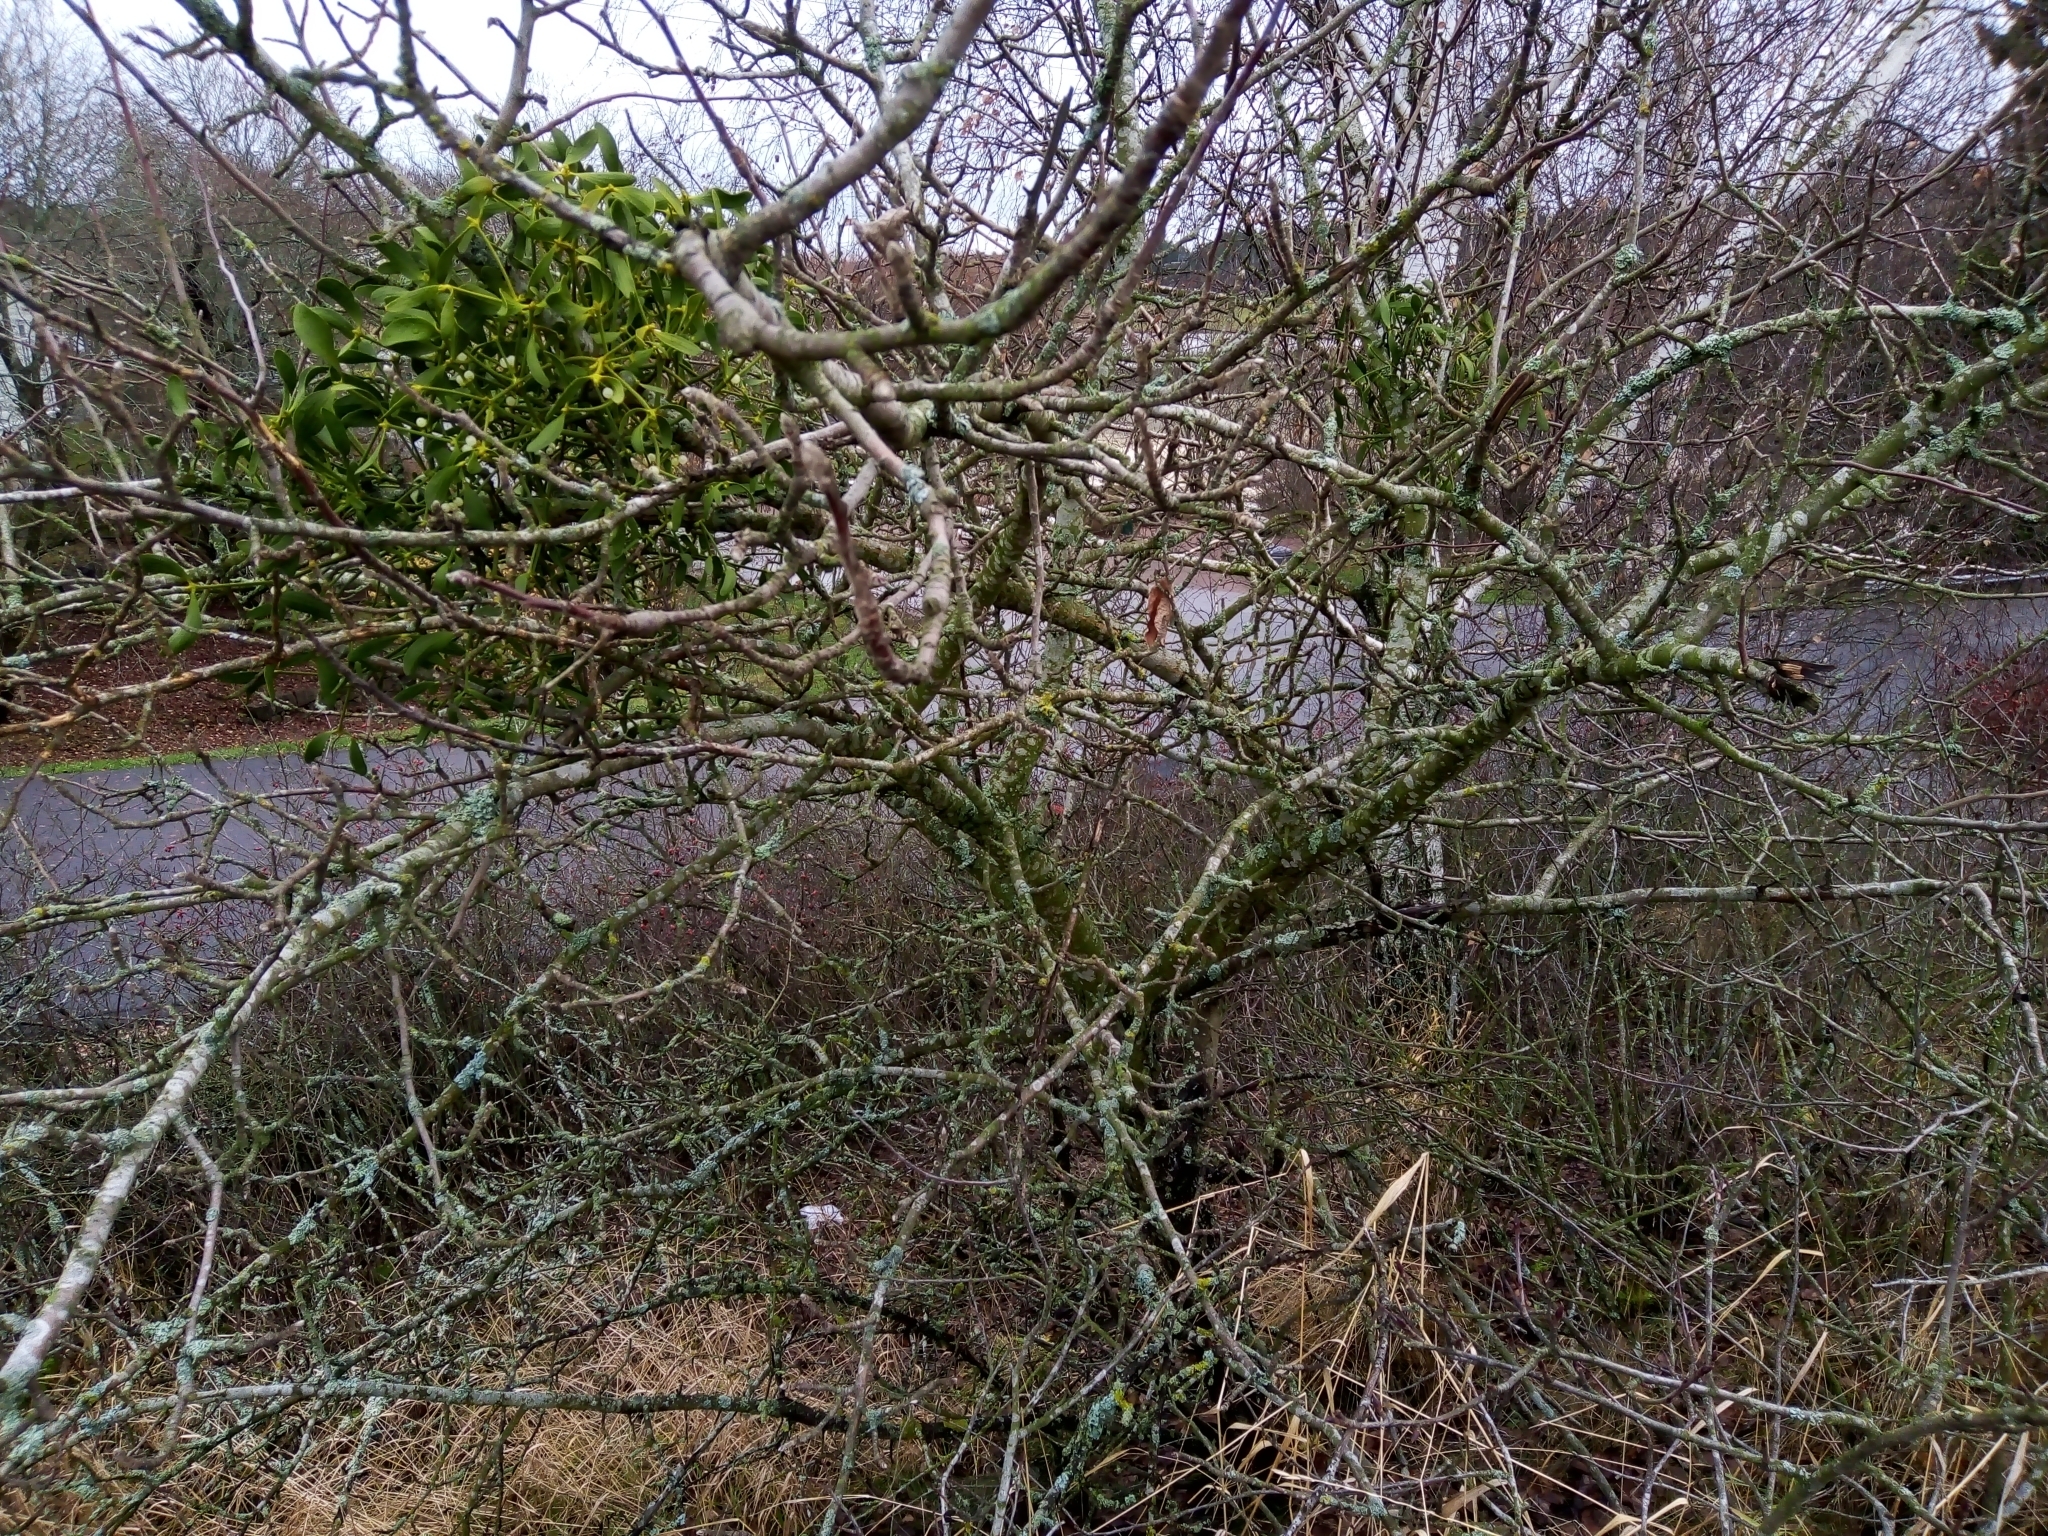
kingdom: Plantae
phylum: Tracheophyta
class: Magnoliopsida
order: Santalales
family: Viscaceae
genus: Viscum
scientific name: Viscum album
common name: Mistletoe
